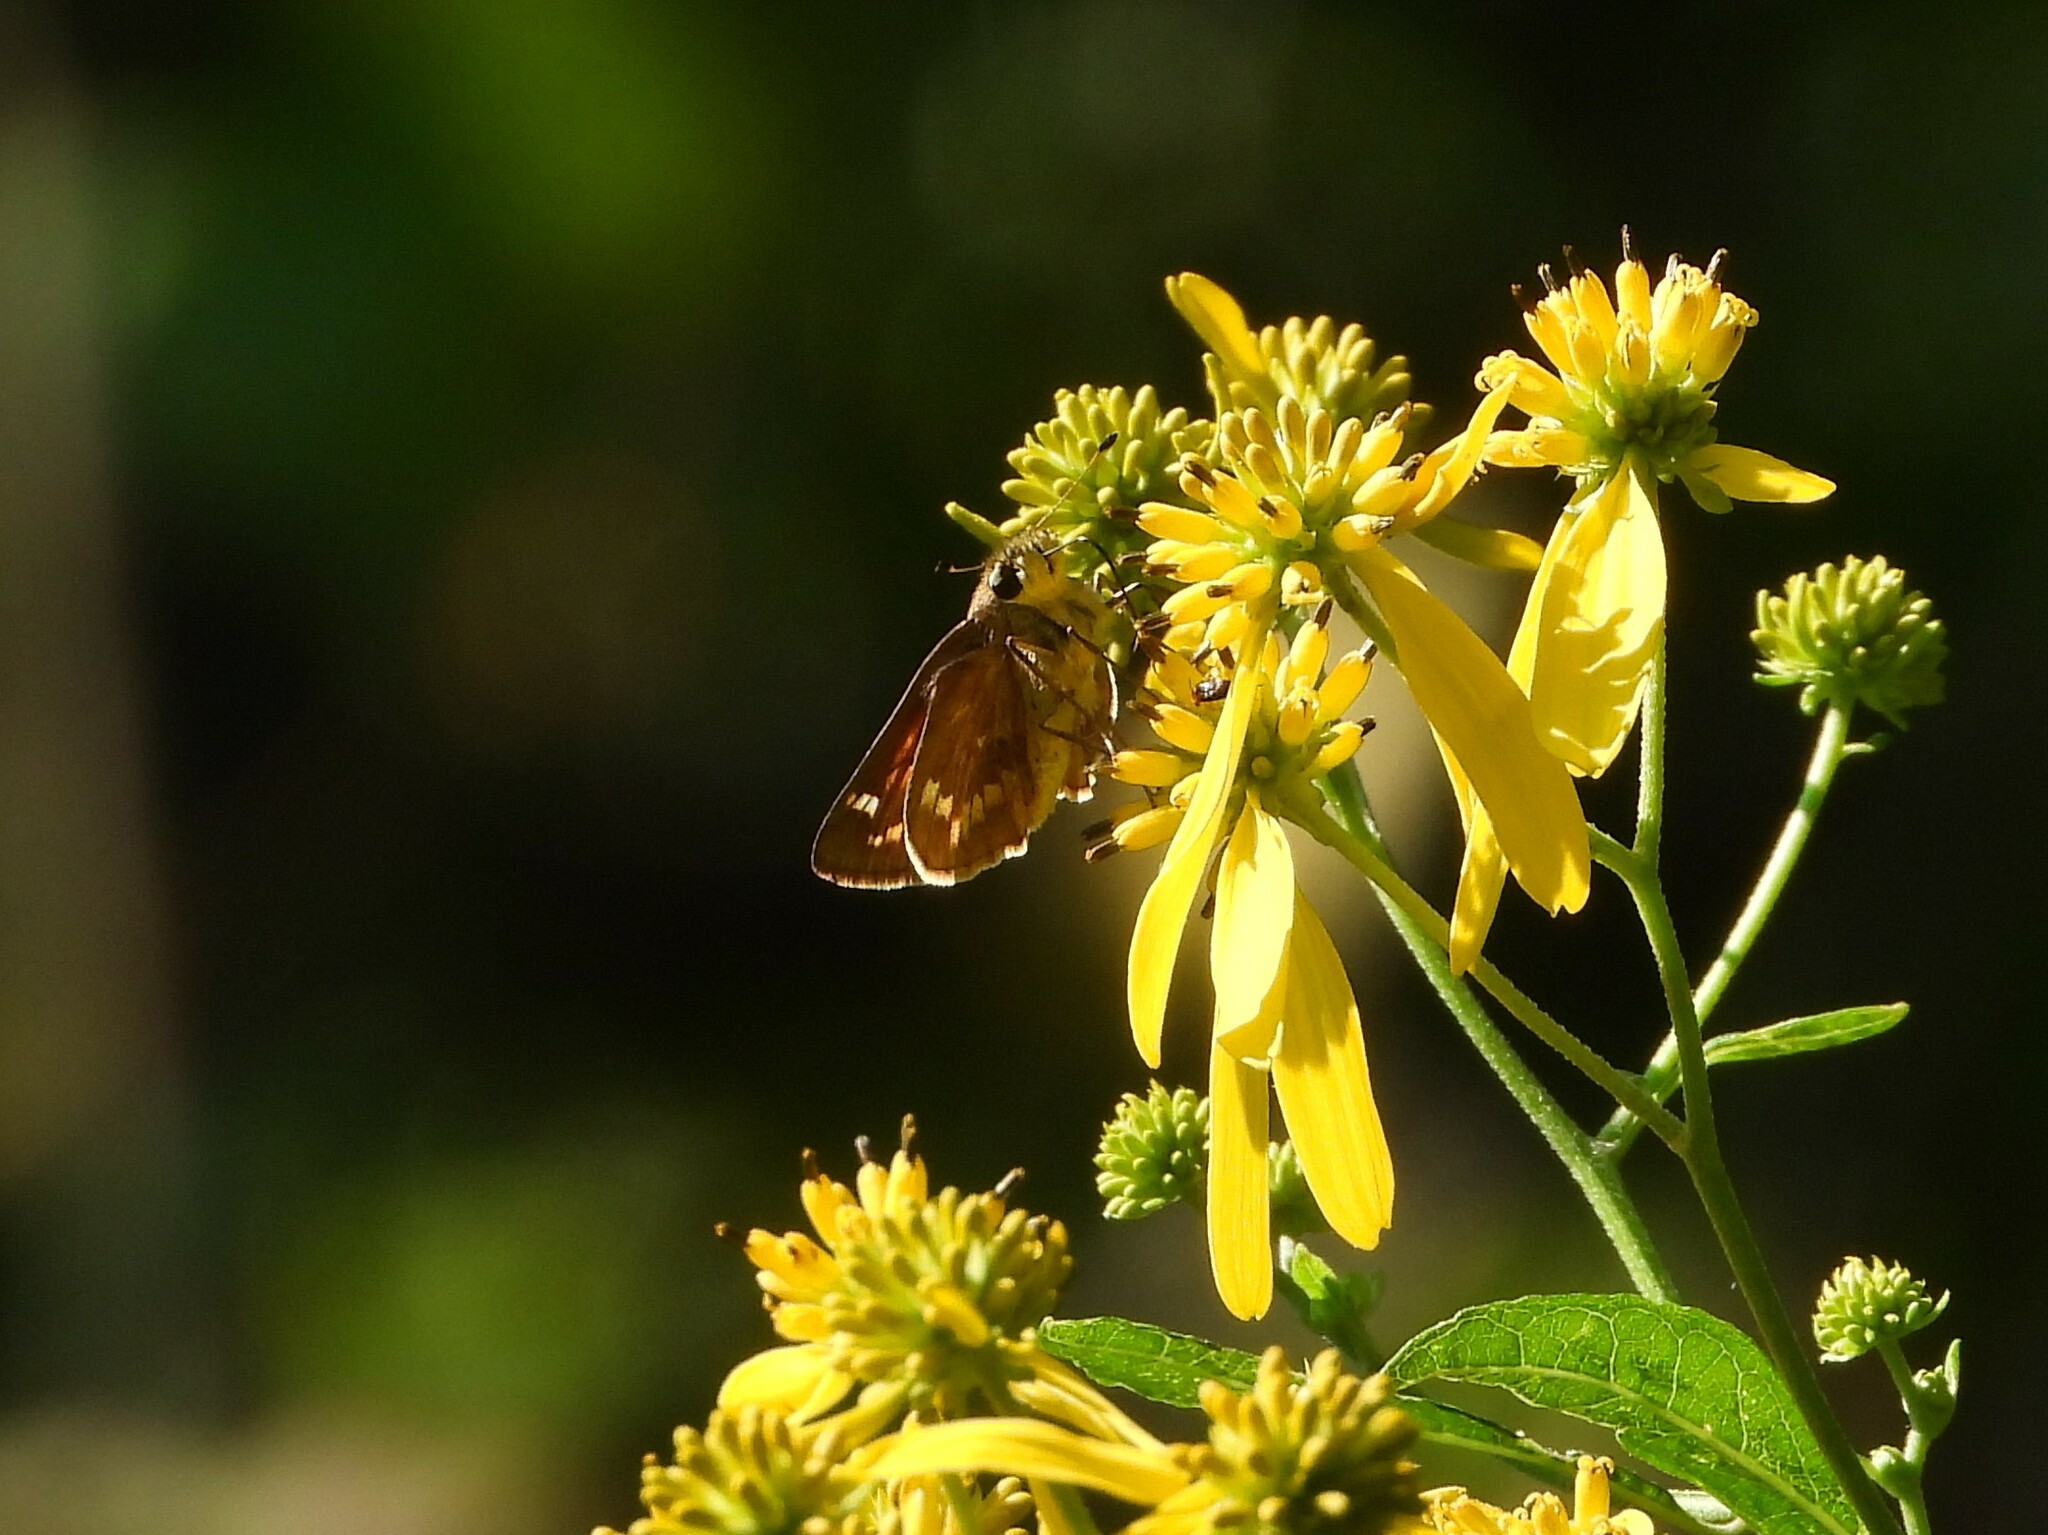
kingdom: Animalia
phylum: Arthropoda
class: Insecta
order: Lepidoptera
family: Hesperiidae
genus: Atalopedes
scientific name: Atalopedes
